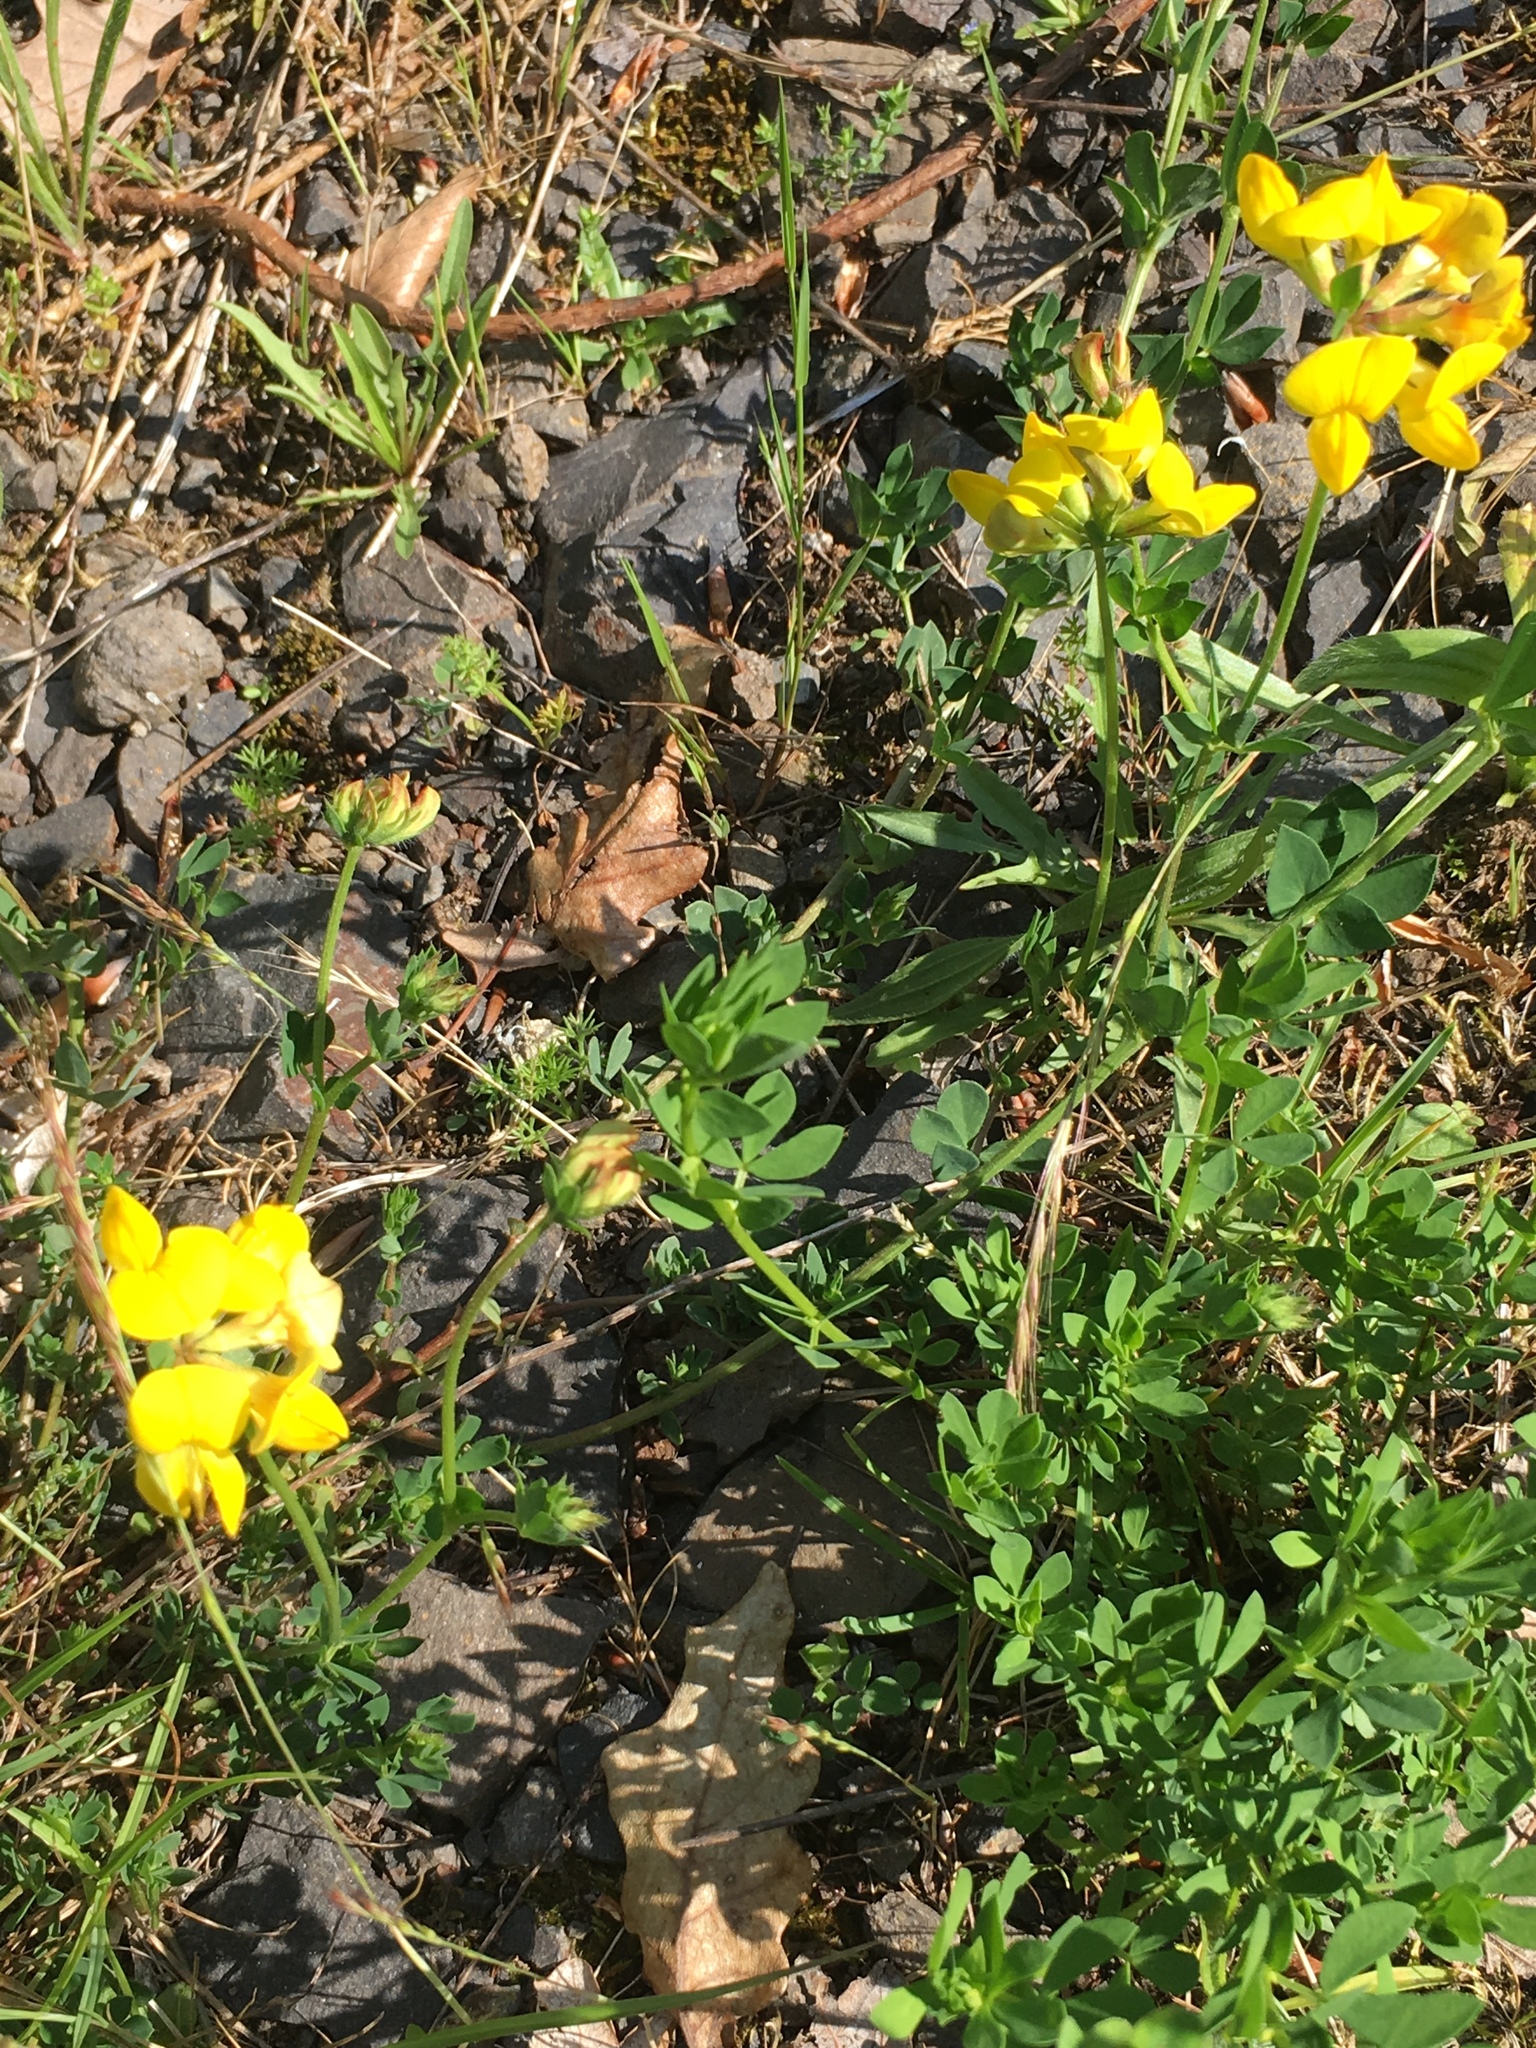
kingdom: Plantae
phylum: Tracheophyta
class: Magnoliopsida
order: Fabales
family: Fabaceae
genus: Lotus
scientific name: Lotus corniculatus
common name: Common bird's-foot-trefoil
